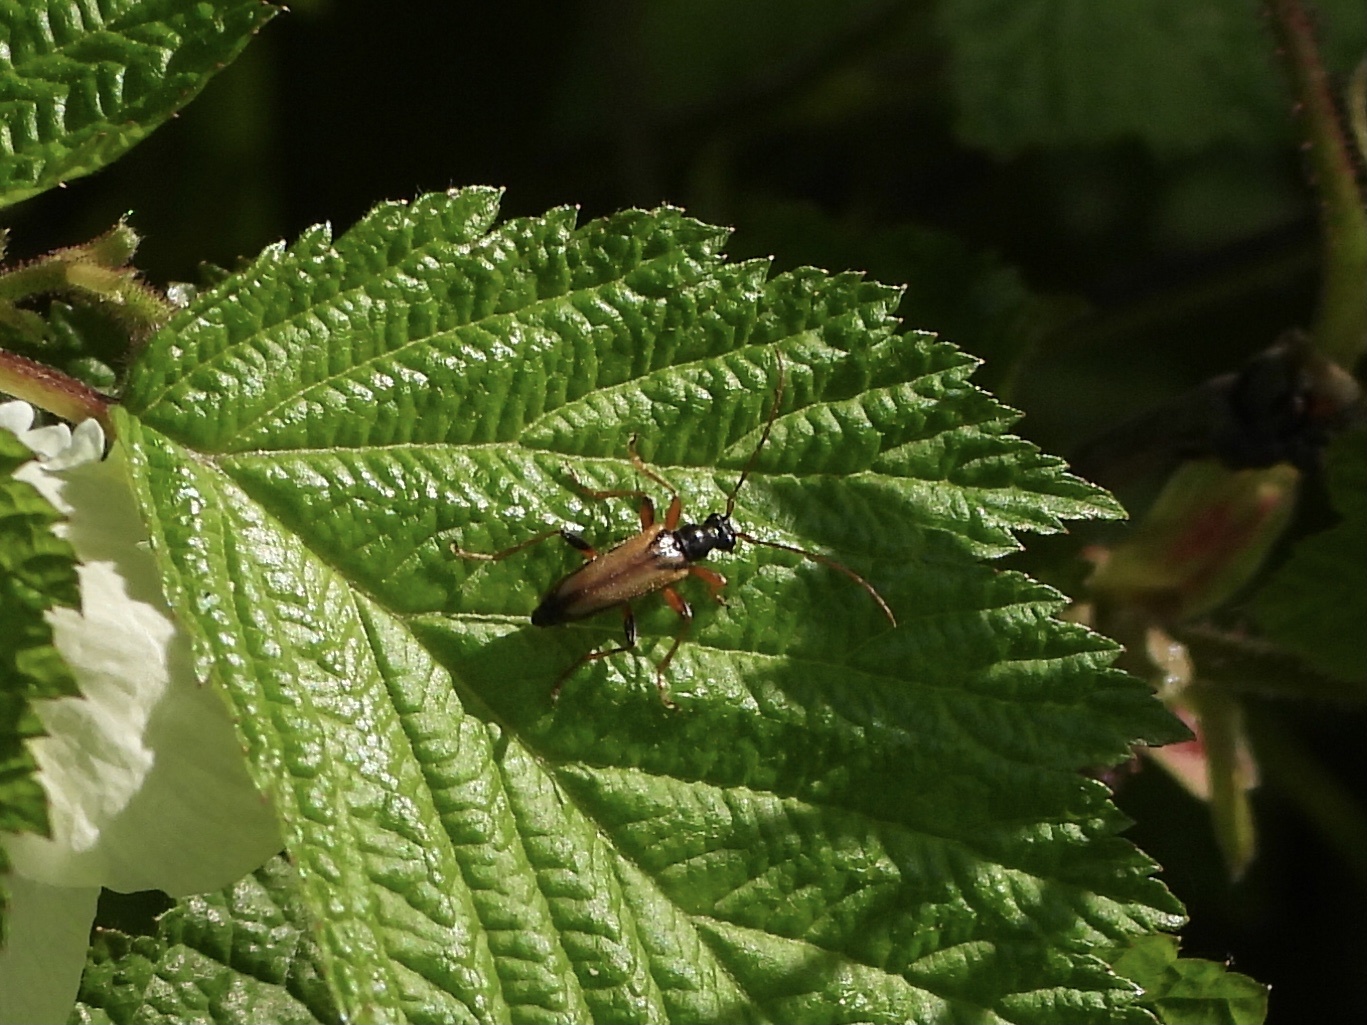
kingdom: Animalia
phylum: Arthropoda
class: Insecta
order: Coleoptera
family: Cerambycidae
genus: Pidonia
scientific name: Pidonia scripta
